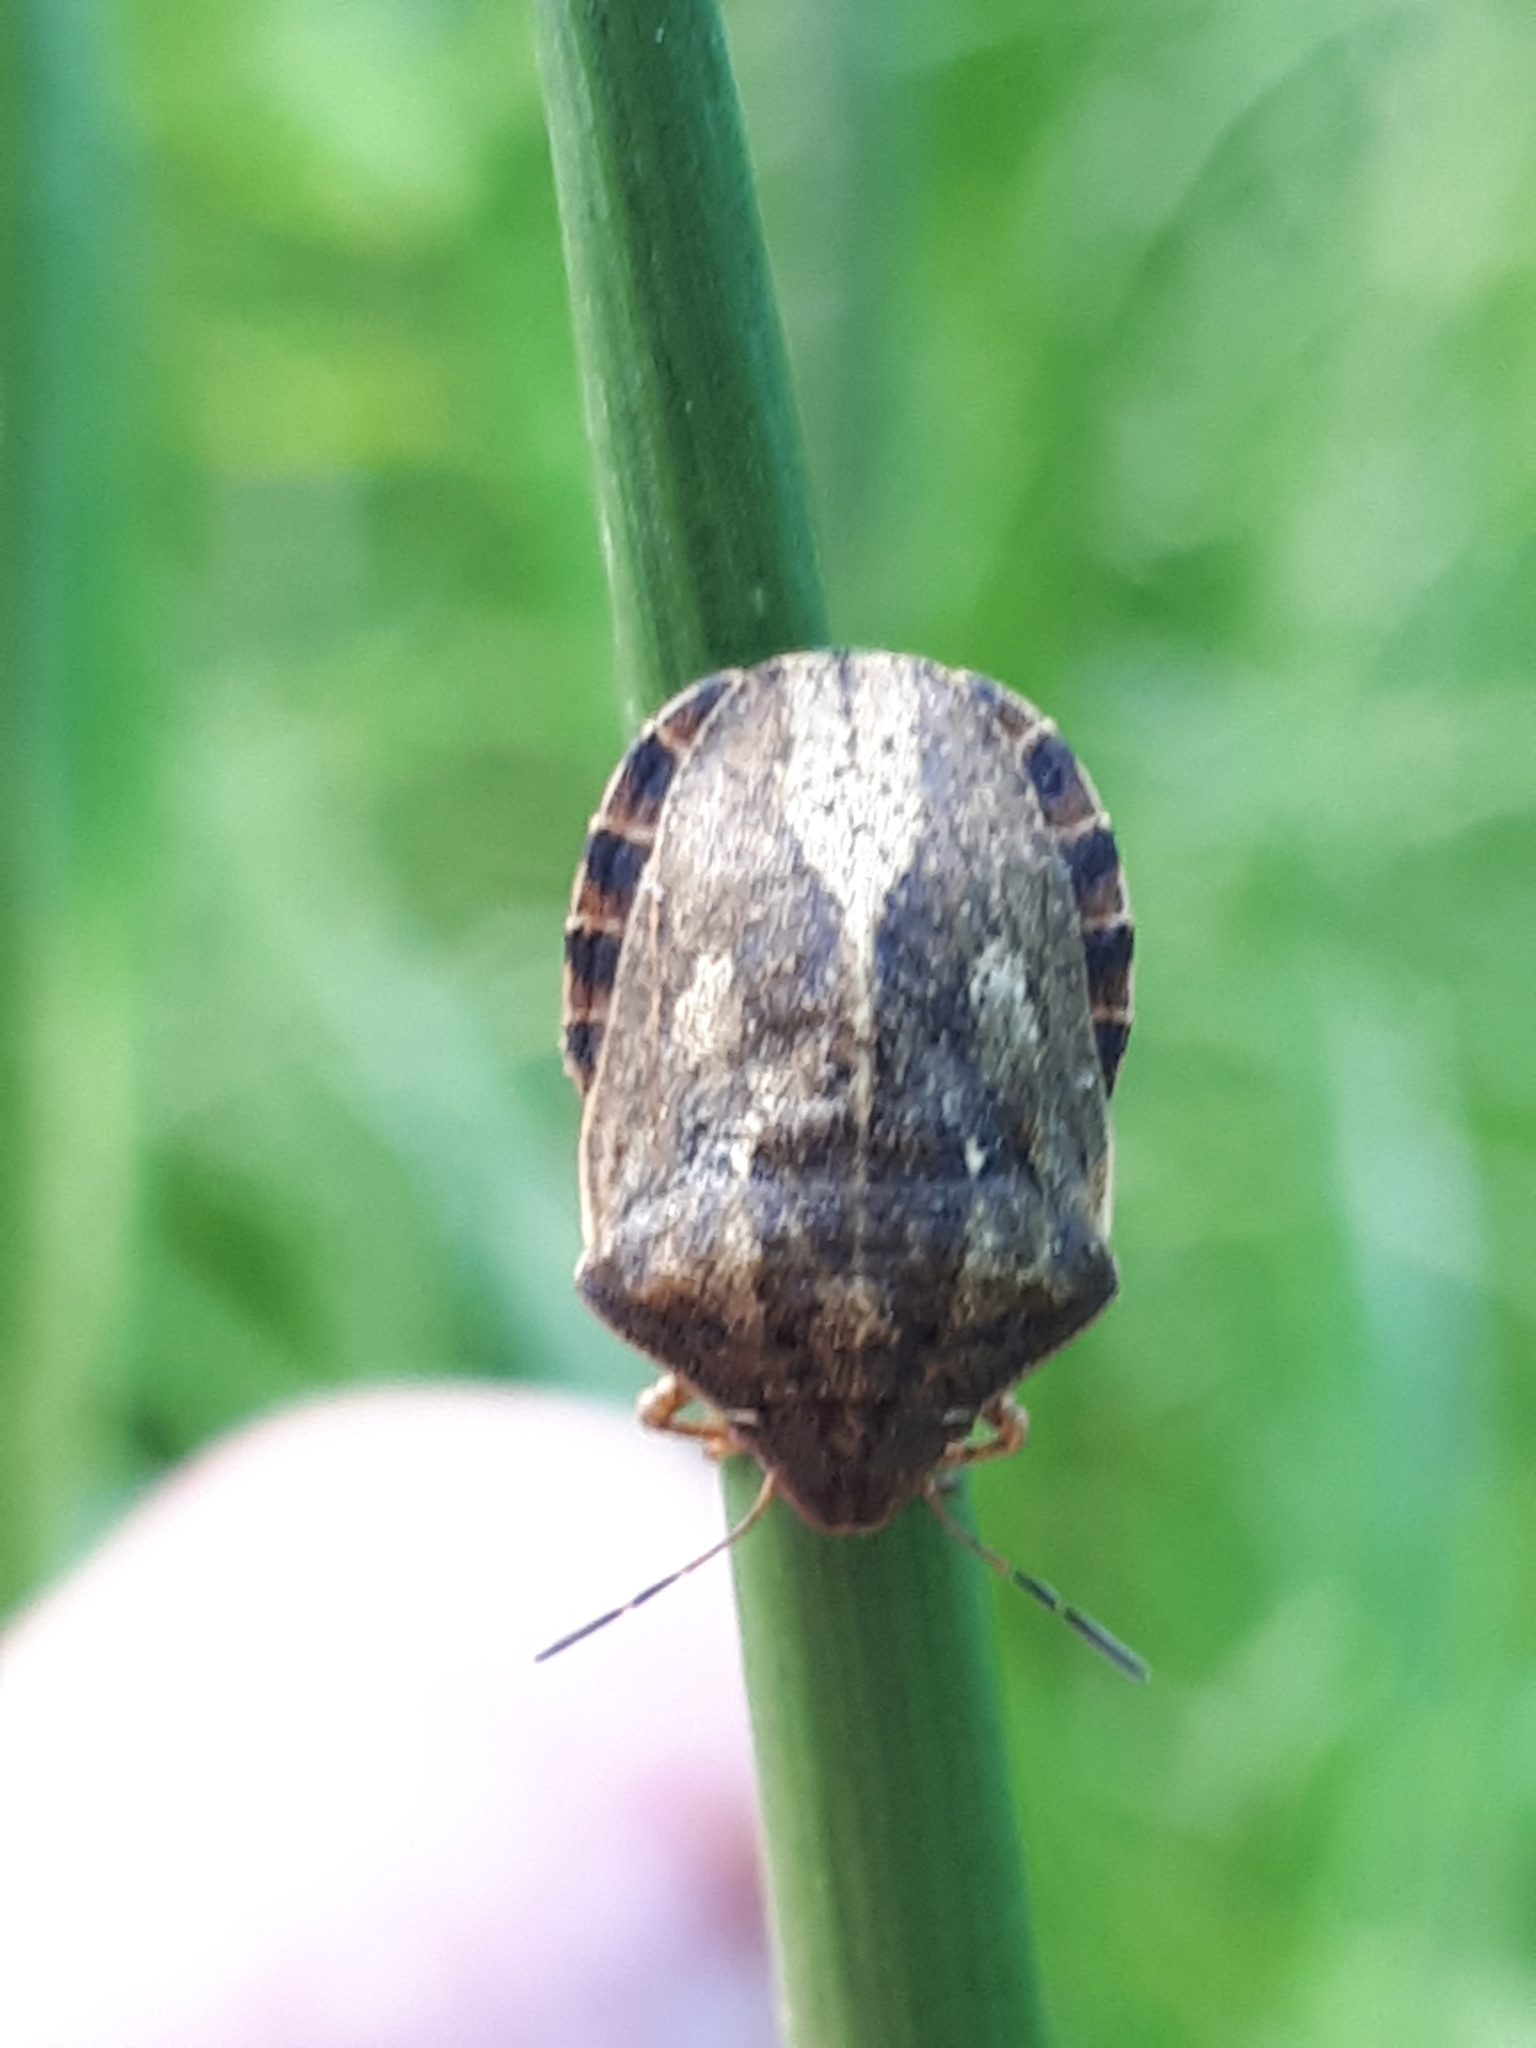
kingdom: Animalia
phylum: Arthropoda
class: Insecta
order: Hemiptera
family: Scutelleridae
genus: Eurygaster
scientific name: Eurygaster testudinaria
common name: Tortoise bug
